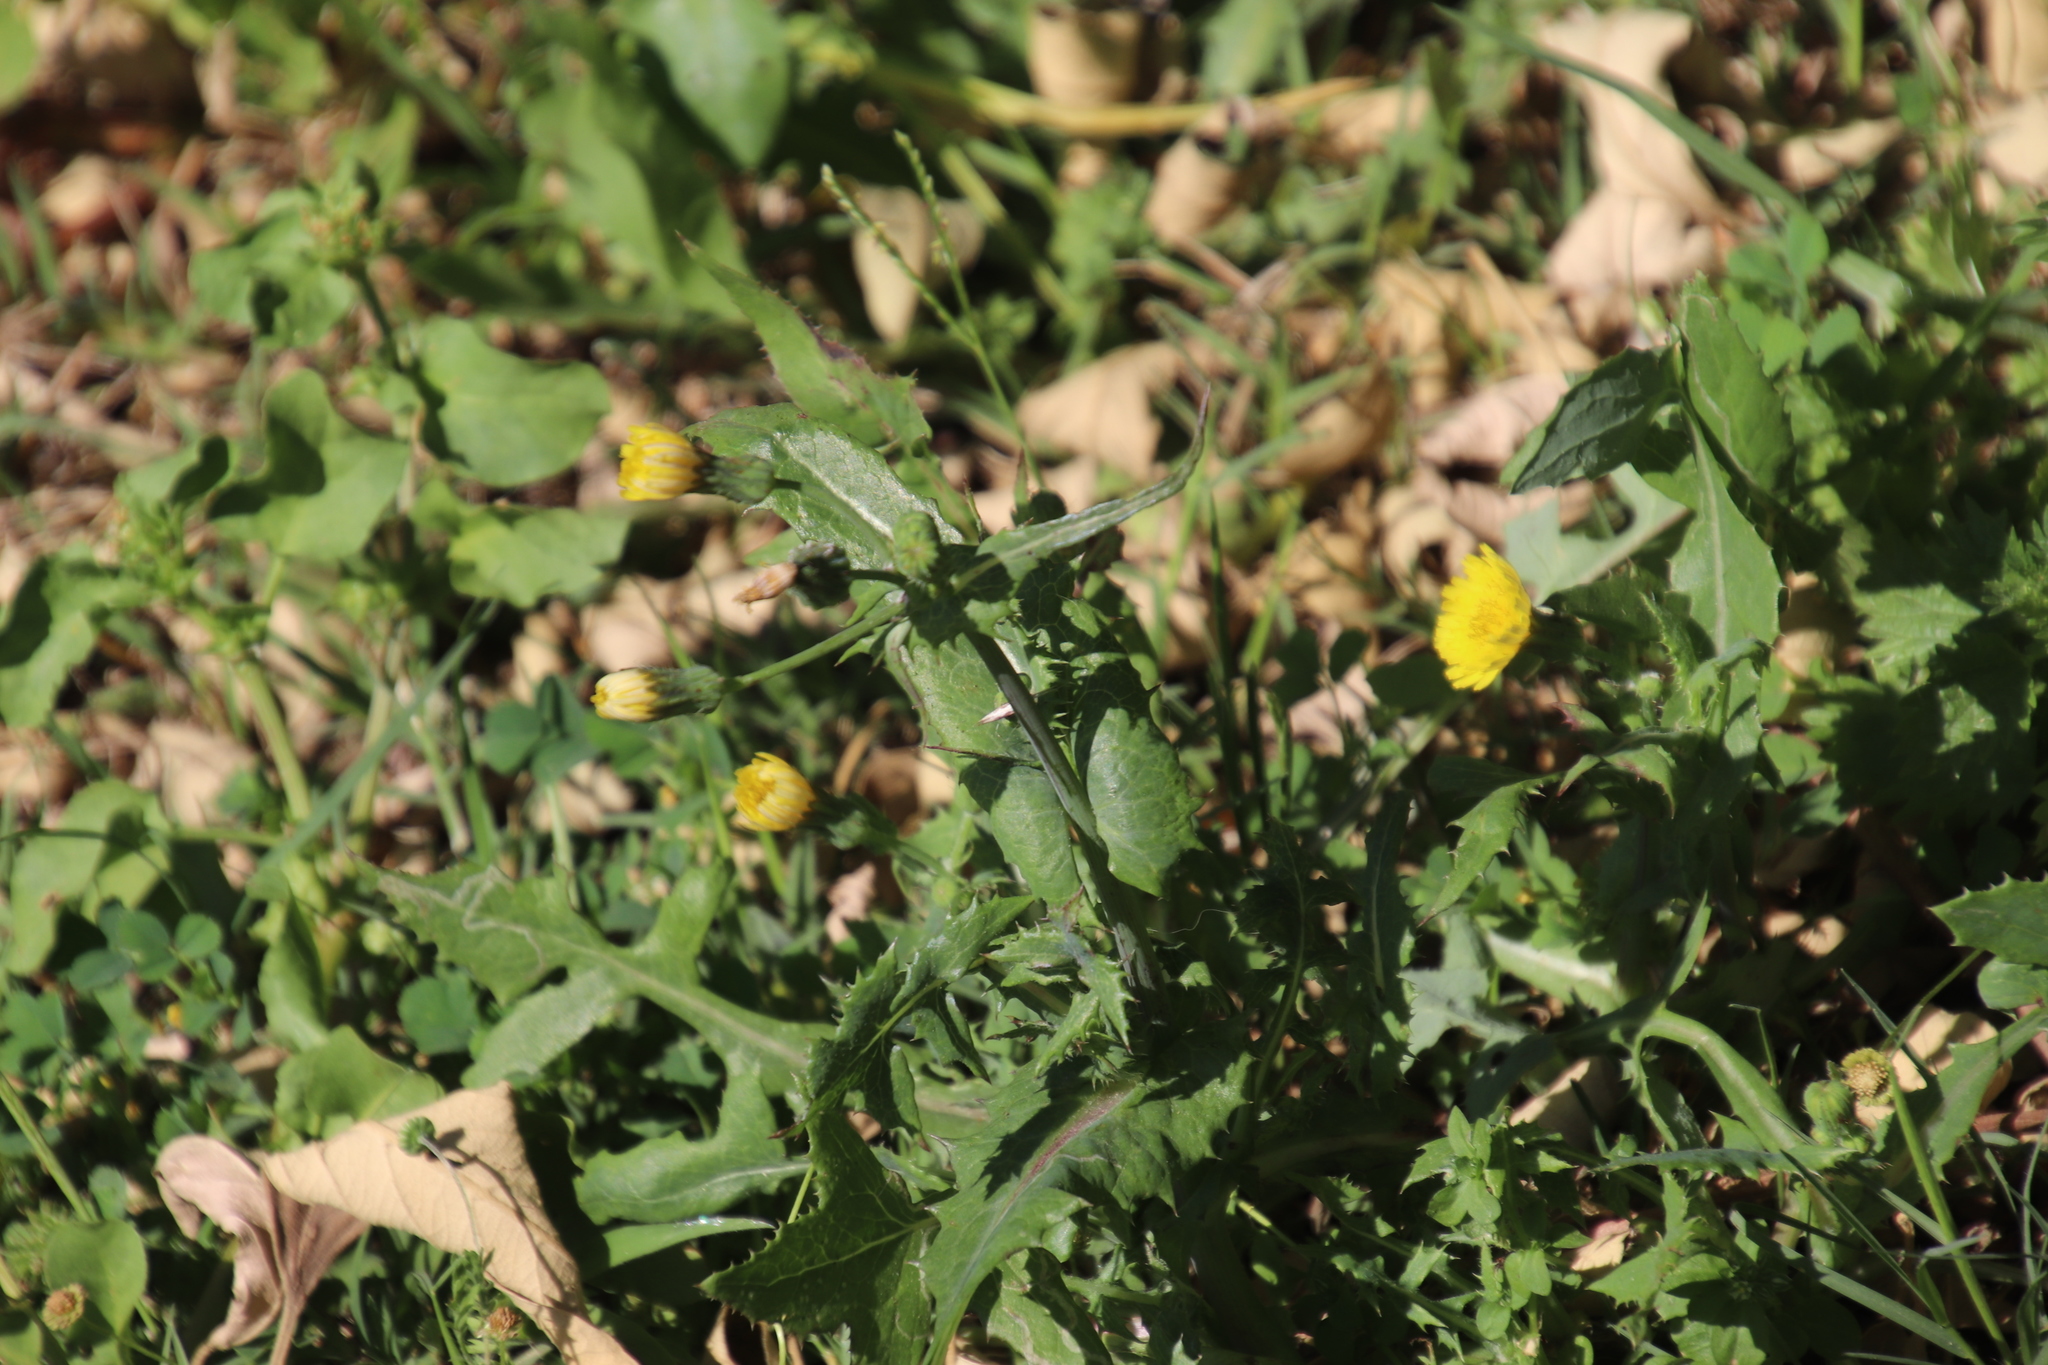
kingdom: Plantae
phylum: Tracheophyta
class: Magnoliopsida
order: Caryophyllales
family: Polygonaceae
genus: Rumex
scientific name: Rumex hypogaeus
